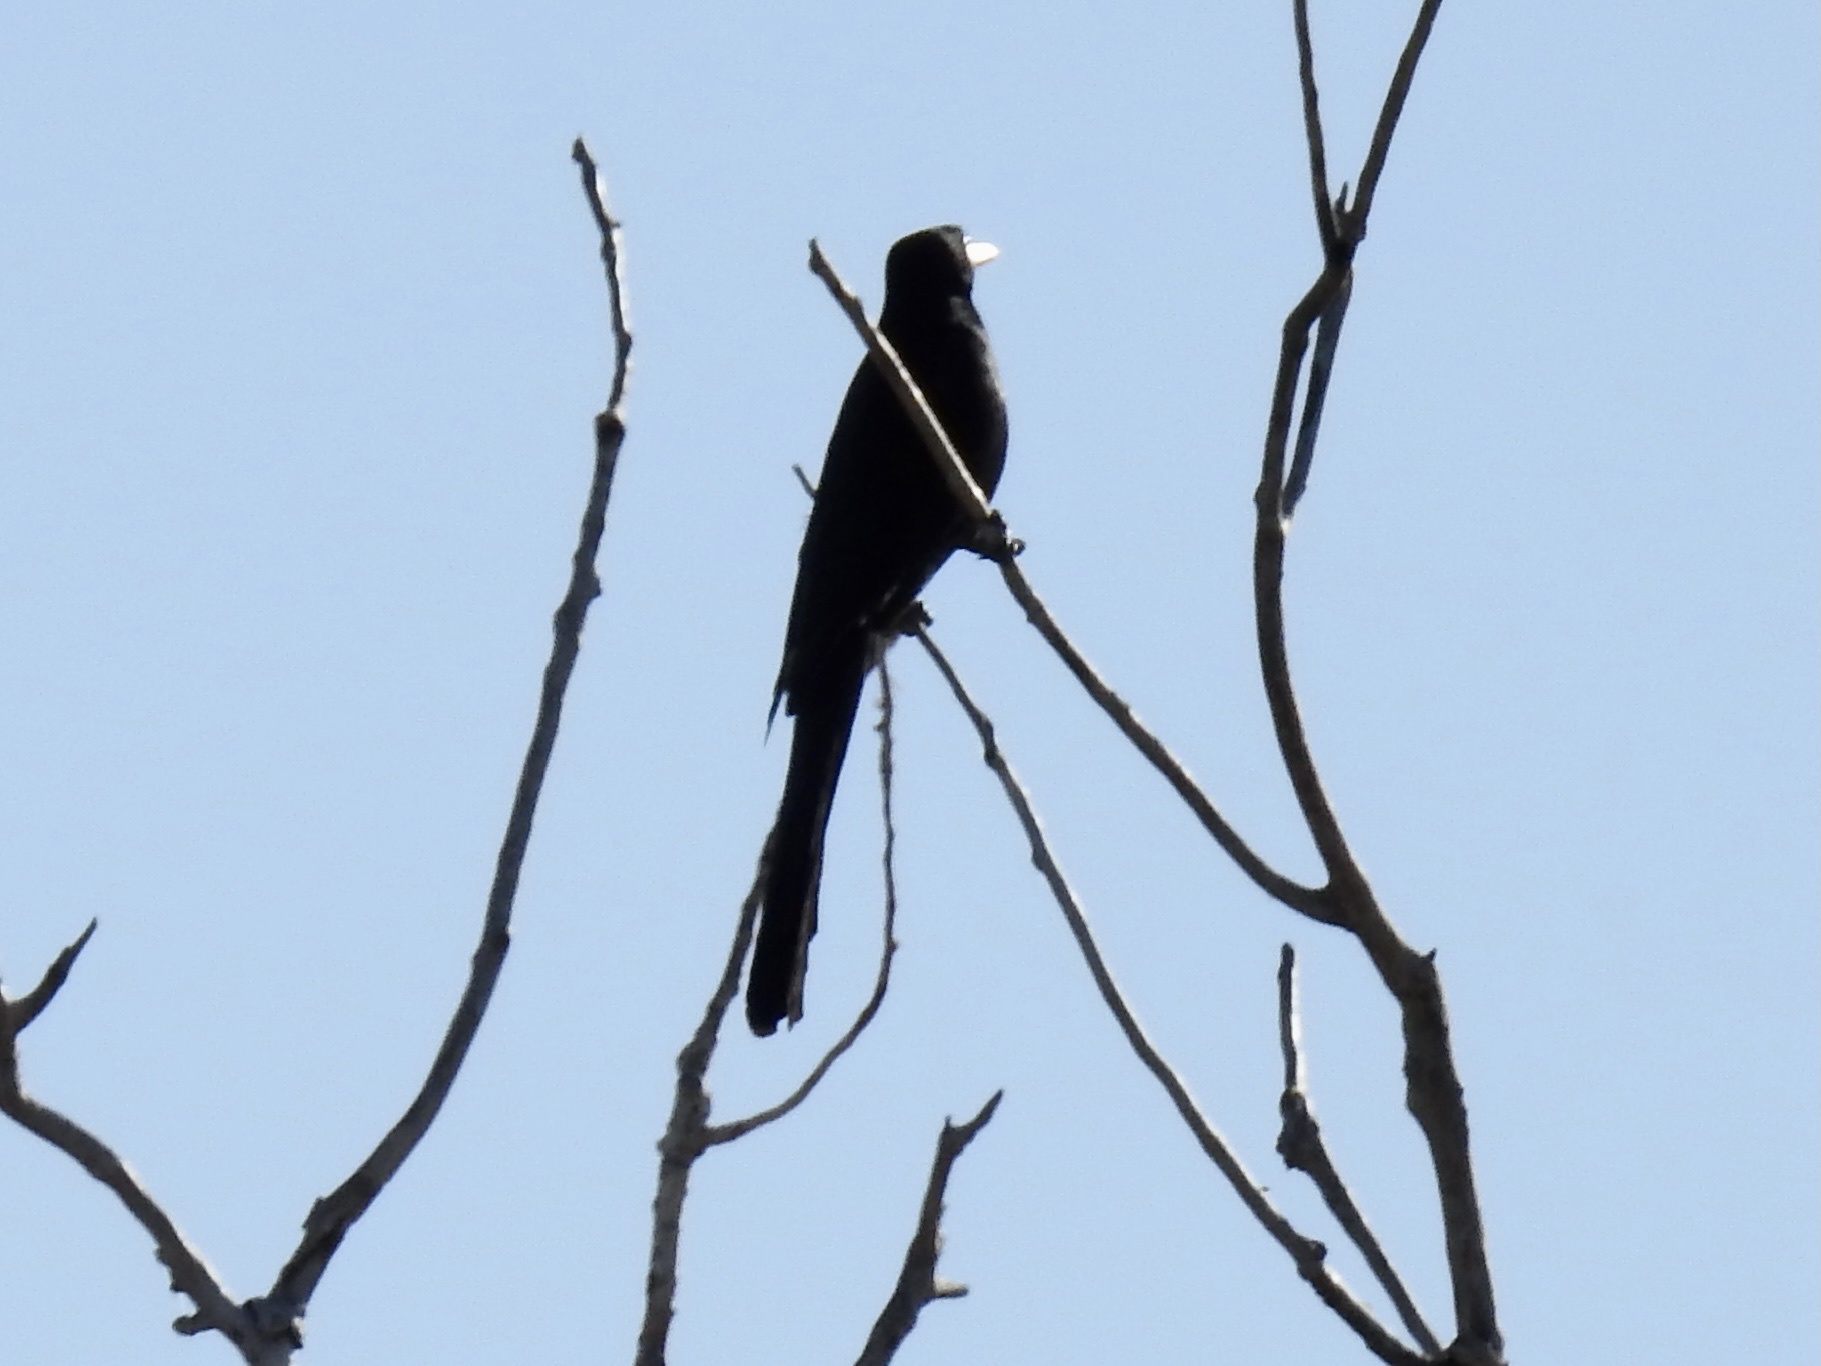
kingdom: Animalia
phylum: Chordata
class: Aves
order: Passeriformes
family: Icteridae
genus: Quiscalus
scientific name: Quiscalus mexicanus
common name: Great-tailed grackle
